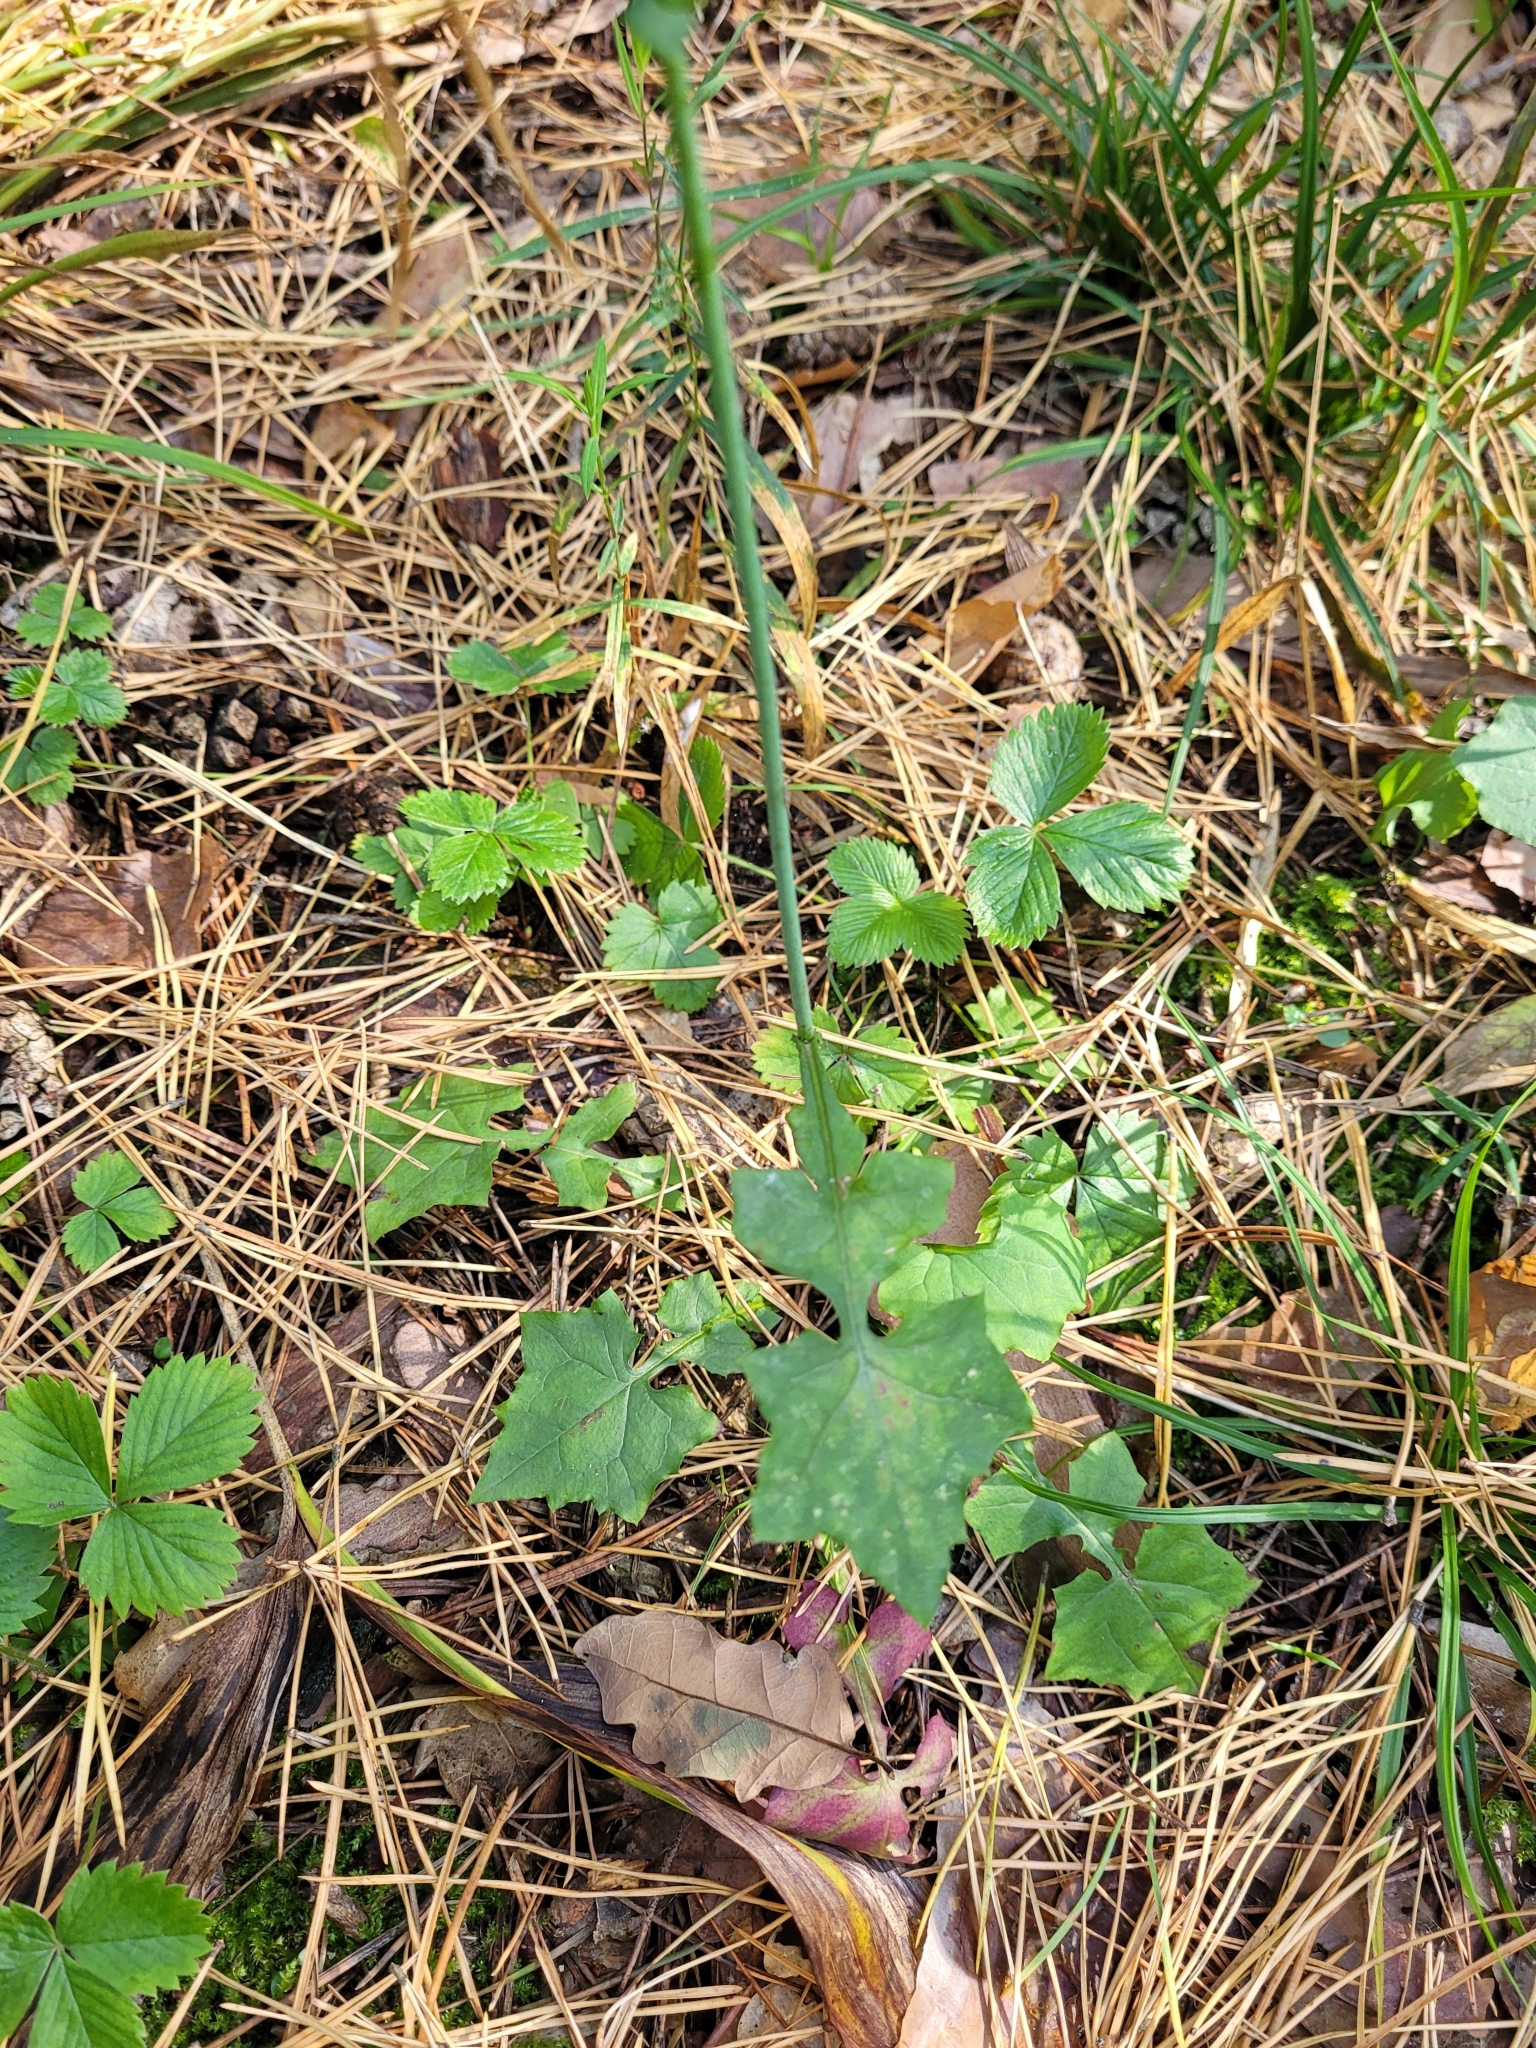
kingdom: Plantae
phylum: Tracheophyta
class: Magnoliopsida
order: Asterales
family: Asteraceae
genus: Mycelis
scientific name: Mycelis muralis
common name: Wall lettuce
